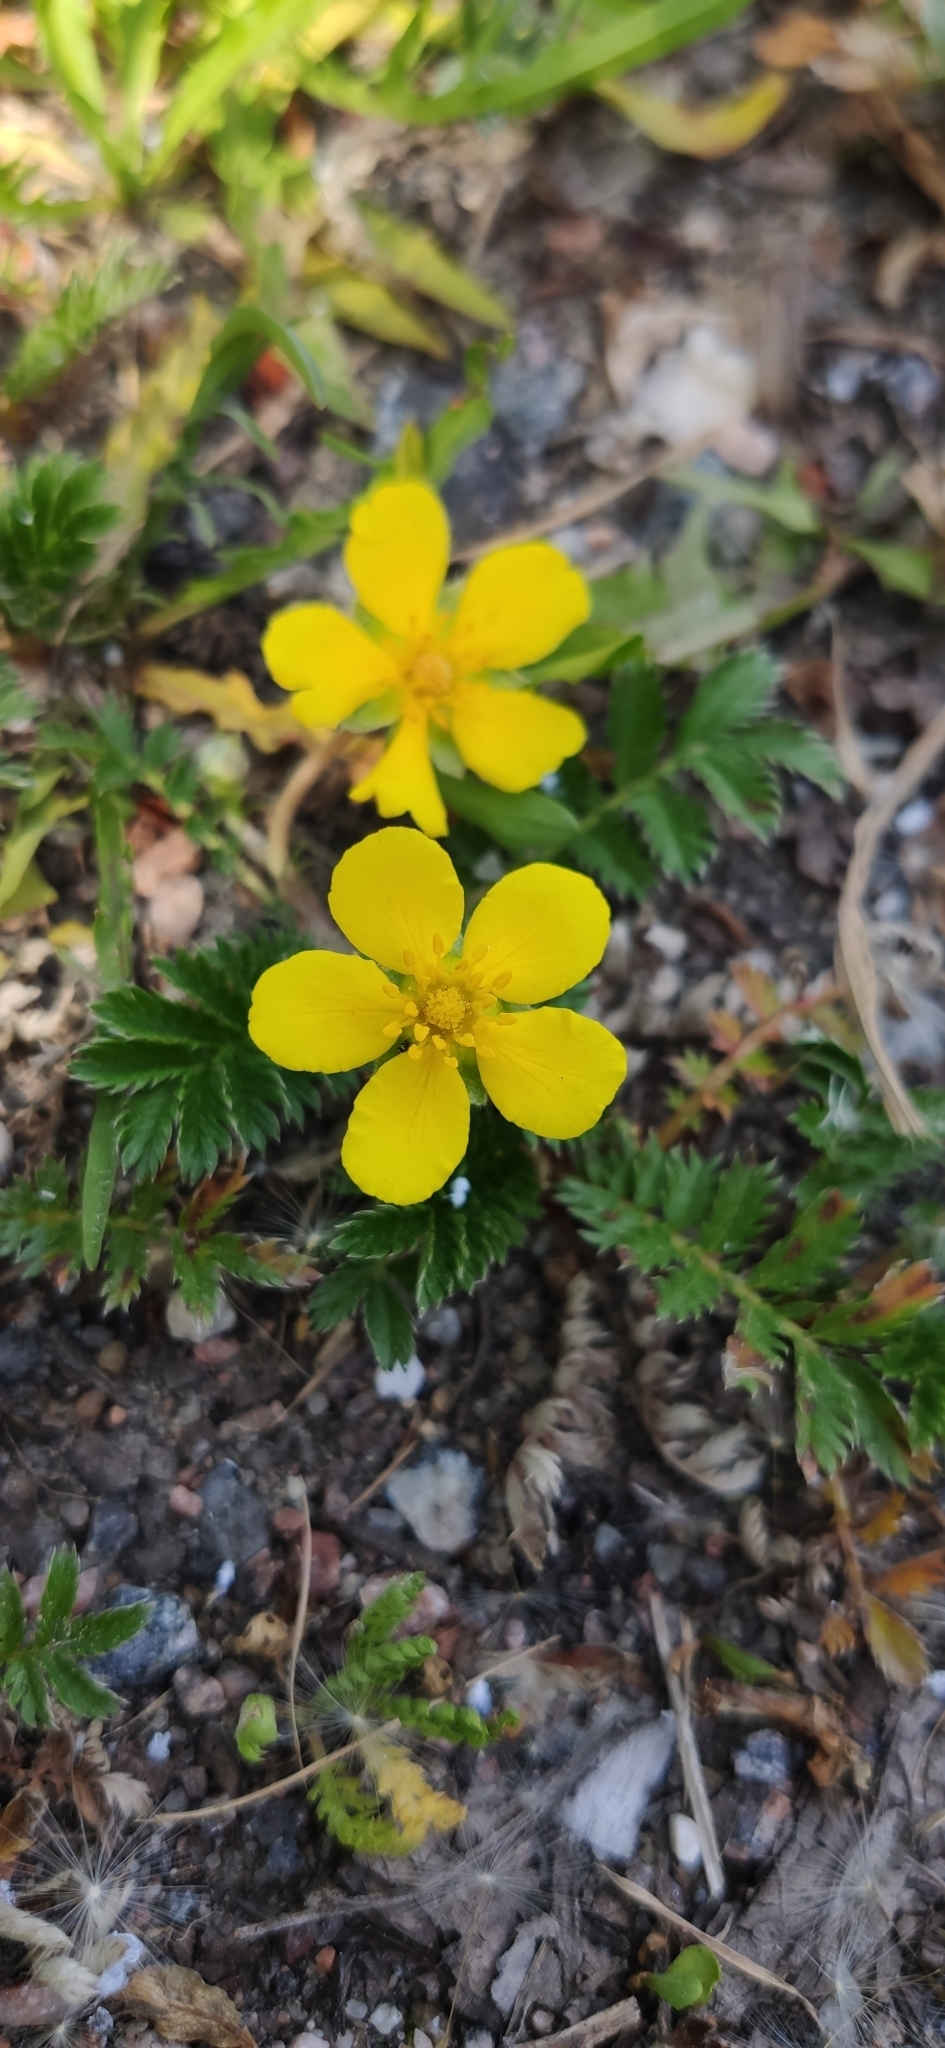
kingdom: Plantae
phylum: Tracheophyta
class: Magnoliopsida
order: Rosales
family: Rosaceae
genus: Argentina
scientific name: Argentina anserina
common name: Common silverweed
